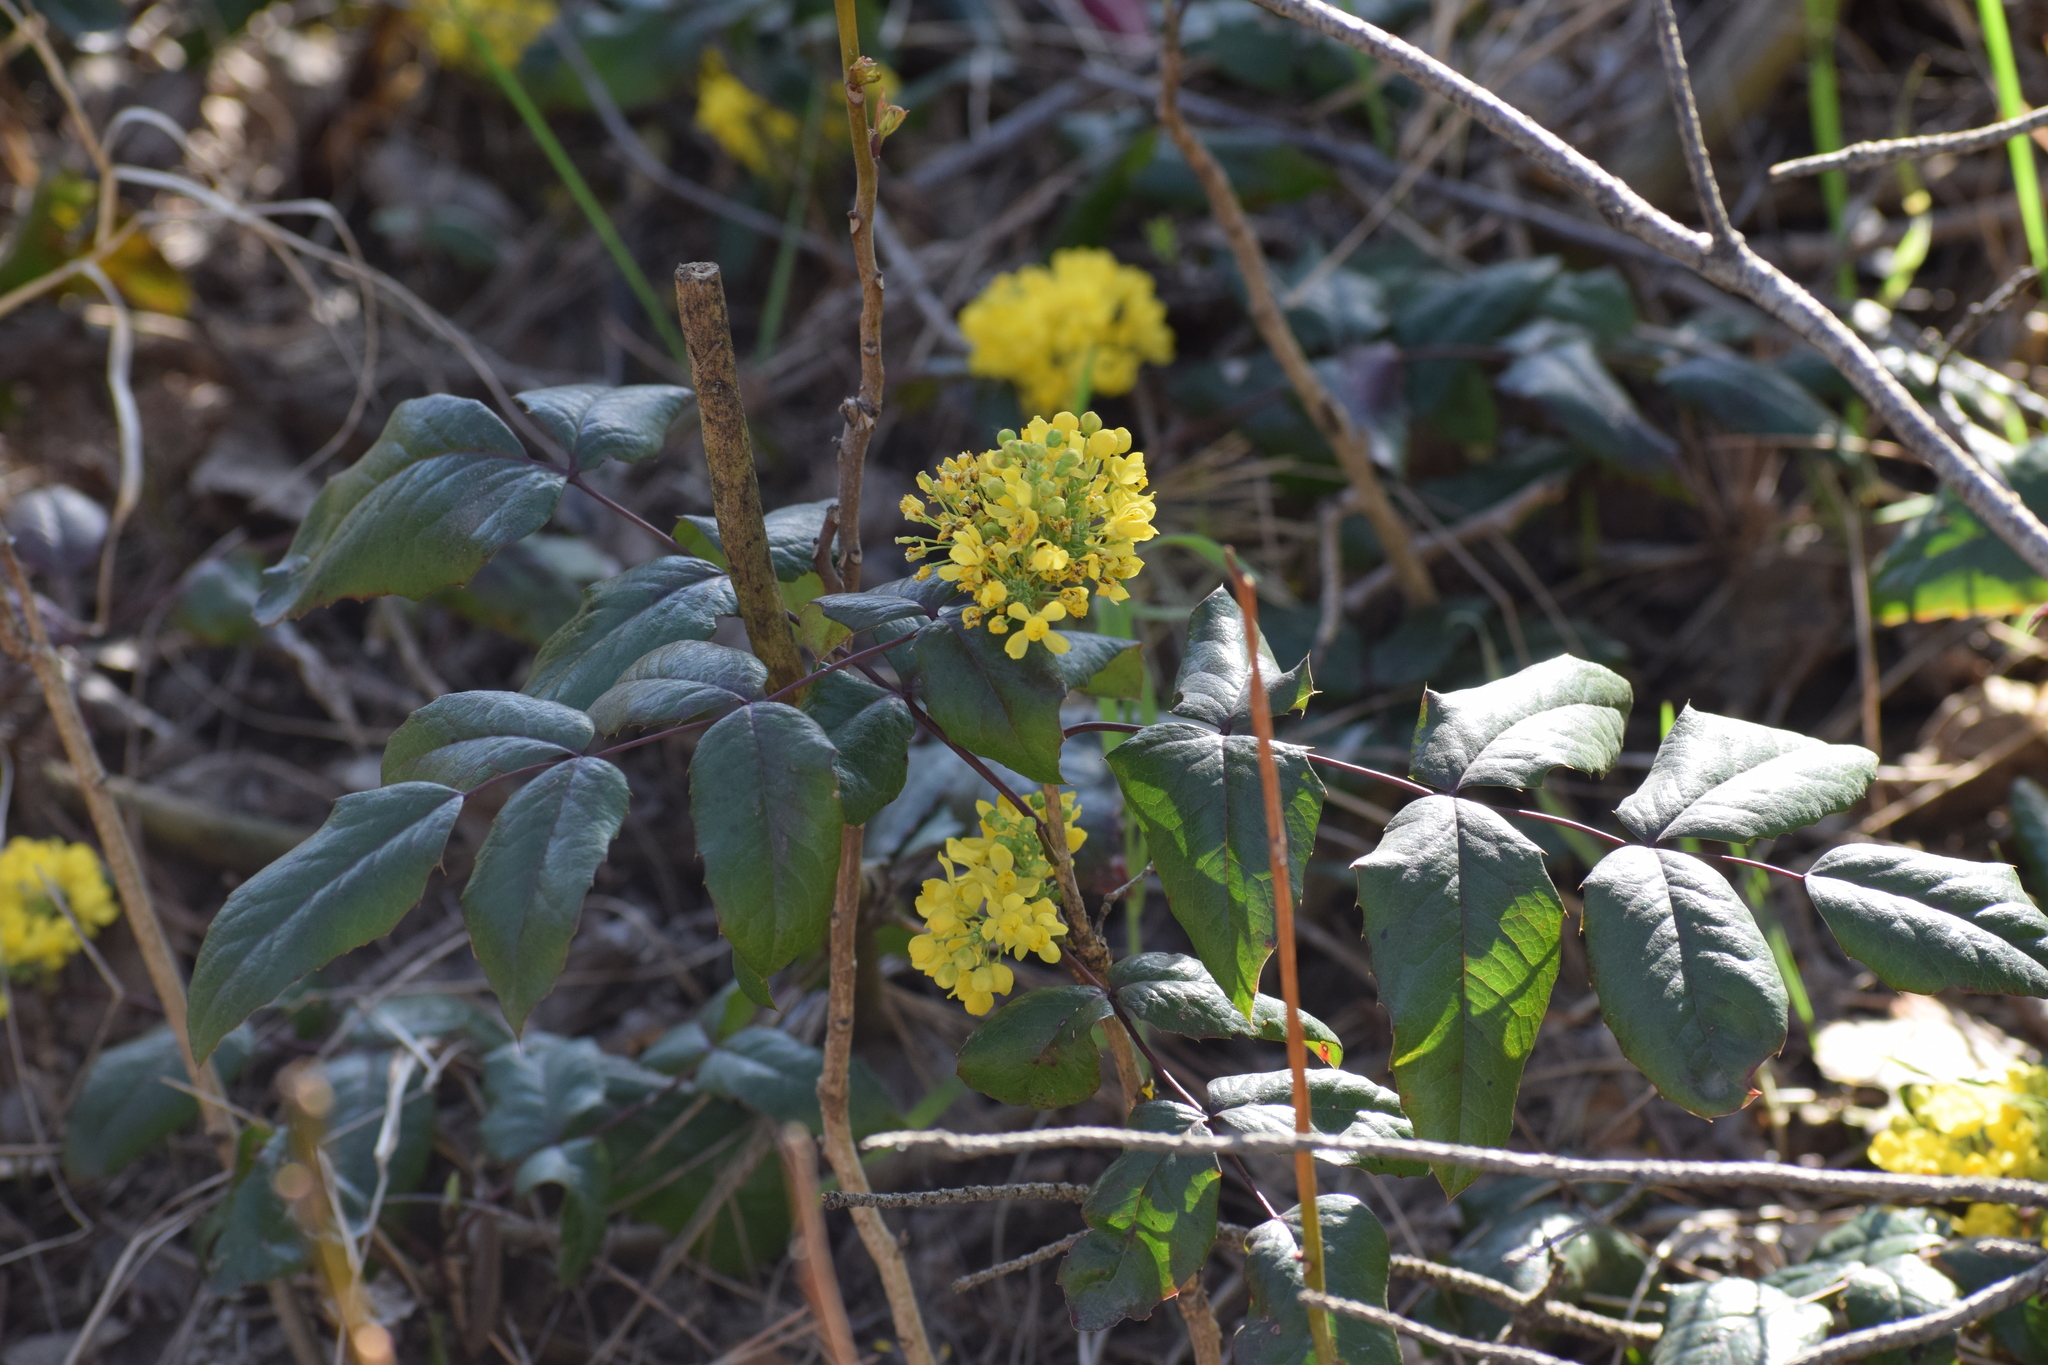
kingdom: Plantae
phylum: Tracheophyta
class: Magnoliopsida
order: Ranunculales
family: Berberidaceae
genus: Mahonia
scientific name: Mahonia aquifolium
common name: Oregon-grape
